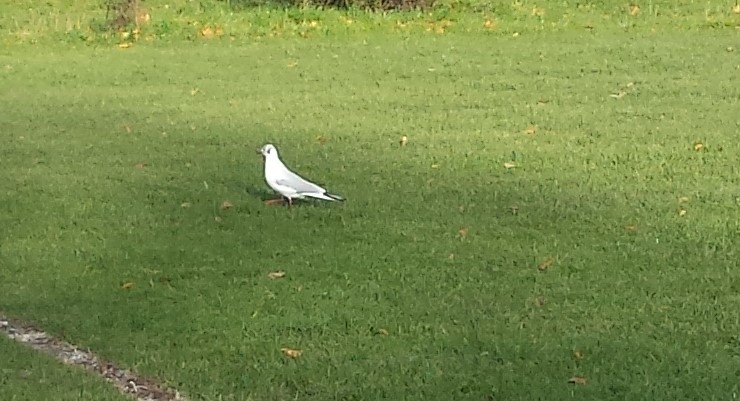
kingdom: Animalia
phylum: Chordata
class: Aves
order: Charadriiformes
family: Laridae
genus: Chroicocephalus
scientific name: Chroicocephalus ridibundus
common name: Black-headed gull
